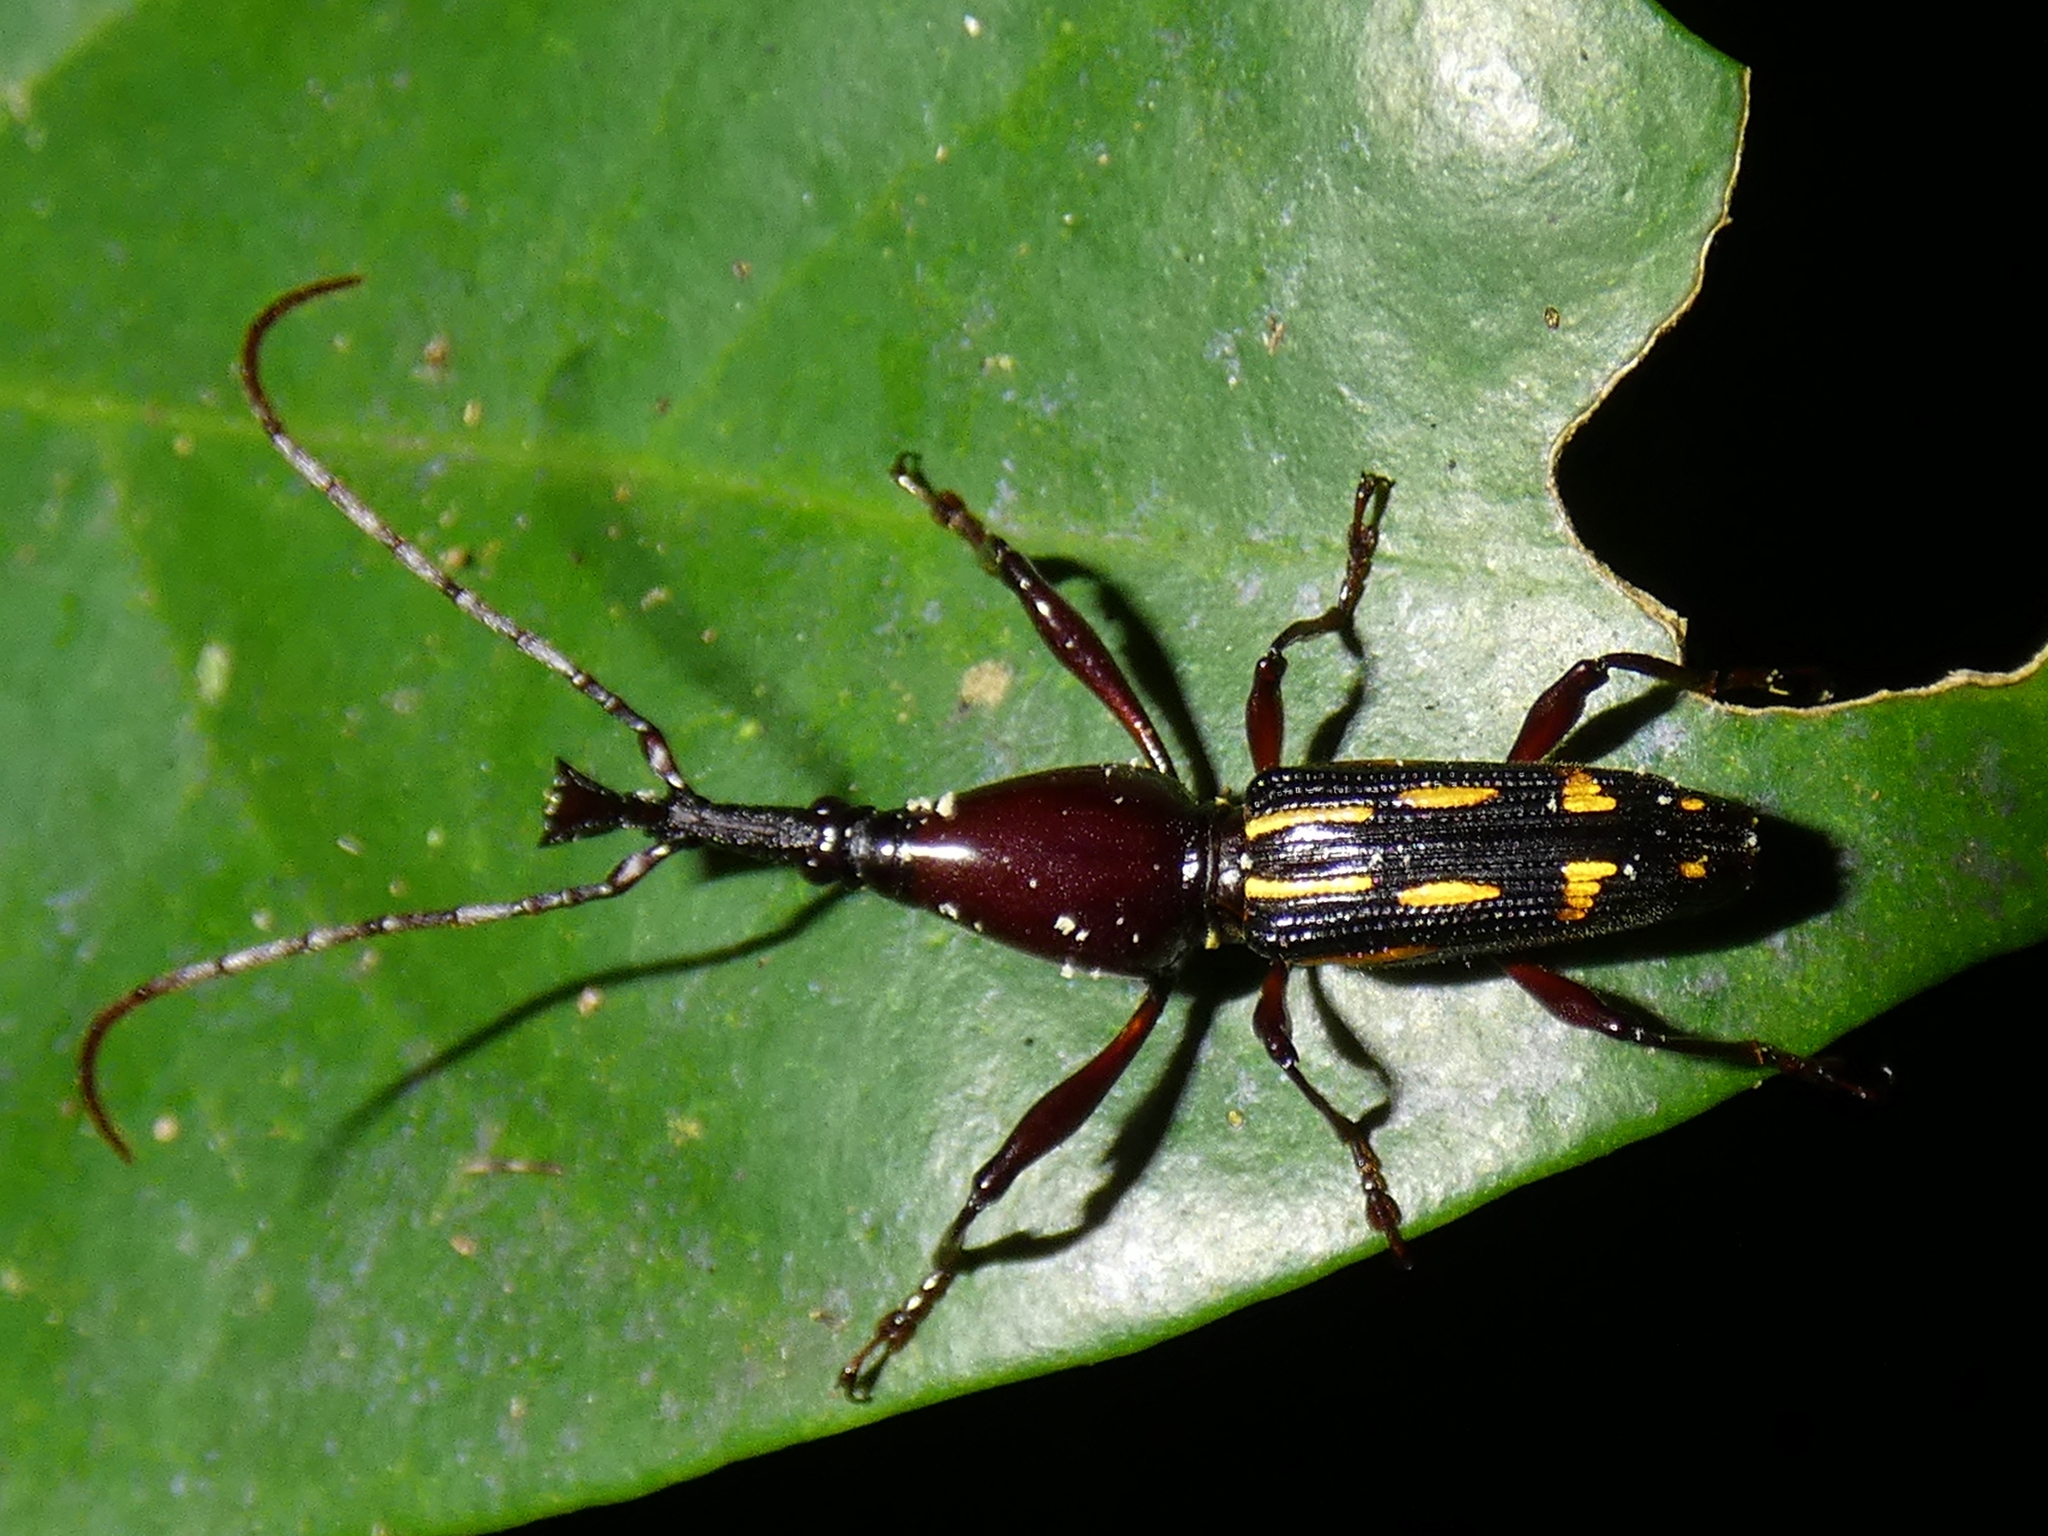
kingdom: Animalia
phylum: Arthropoda
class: Insecta
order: Coleoptera
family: Brentidae
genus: Ectocemus
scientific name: Ectocemus decemmaculatus
